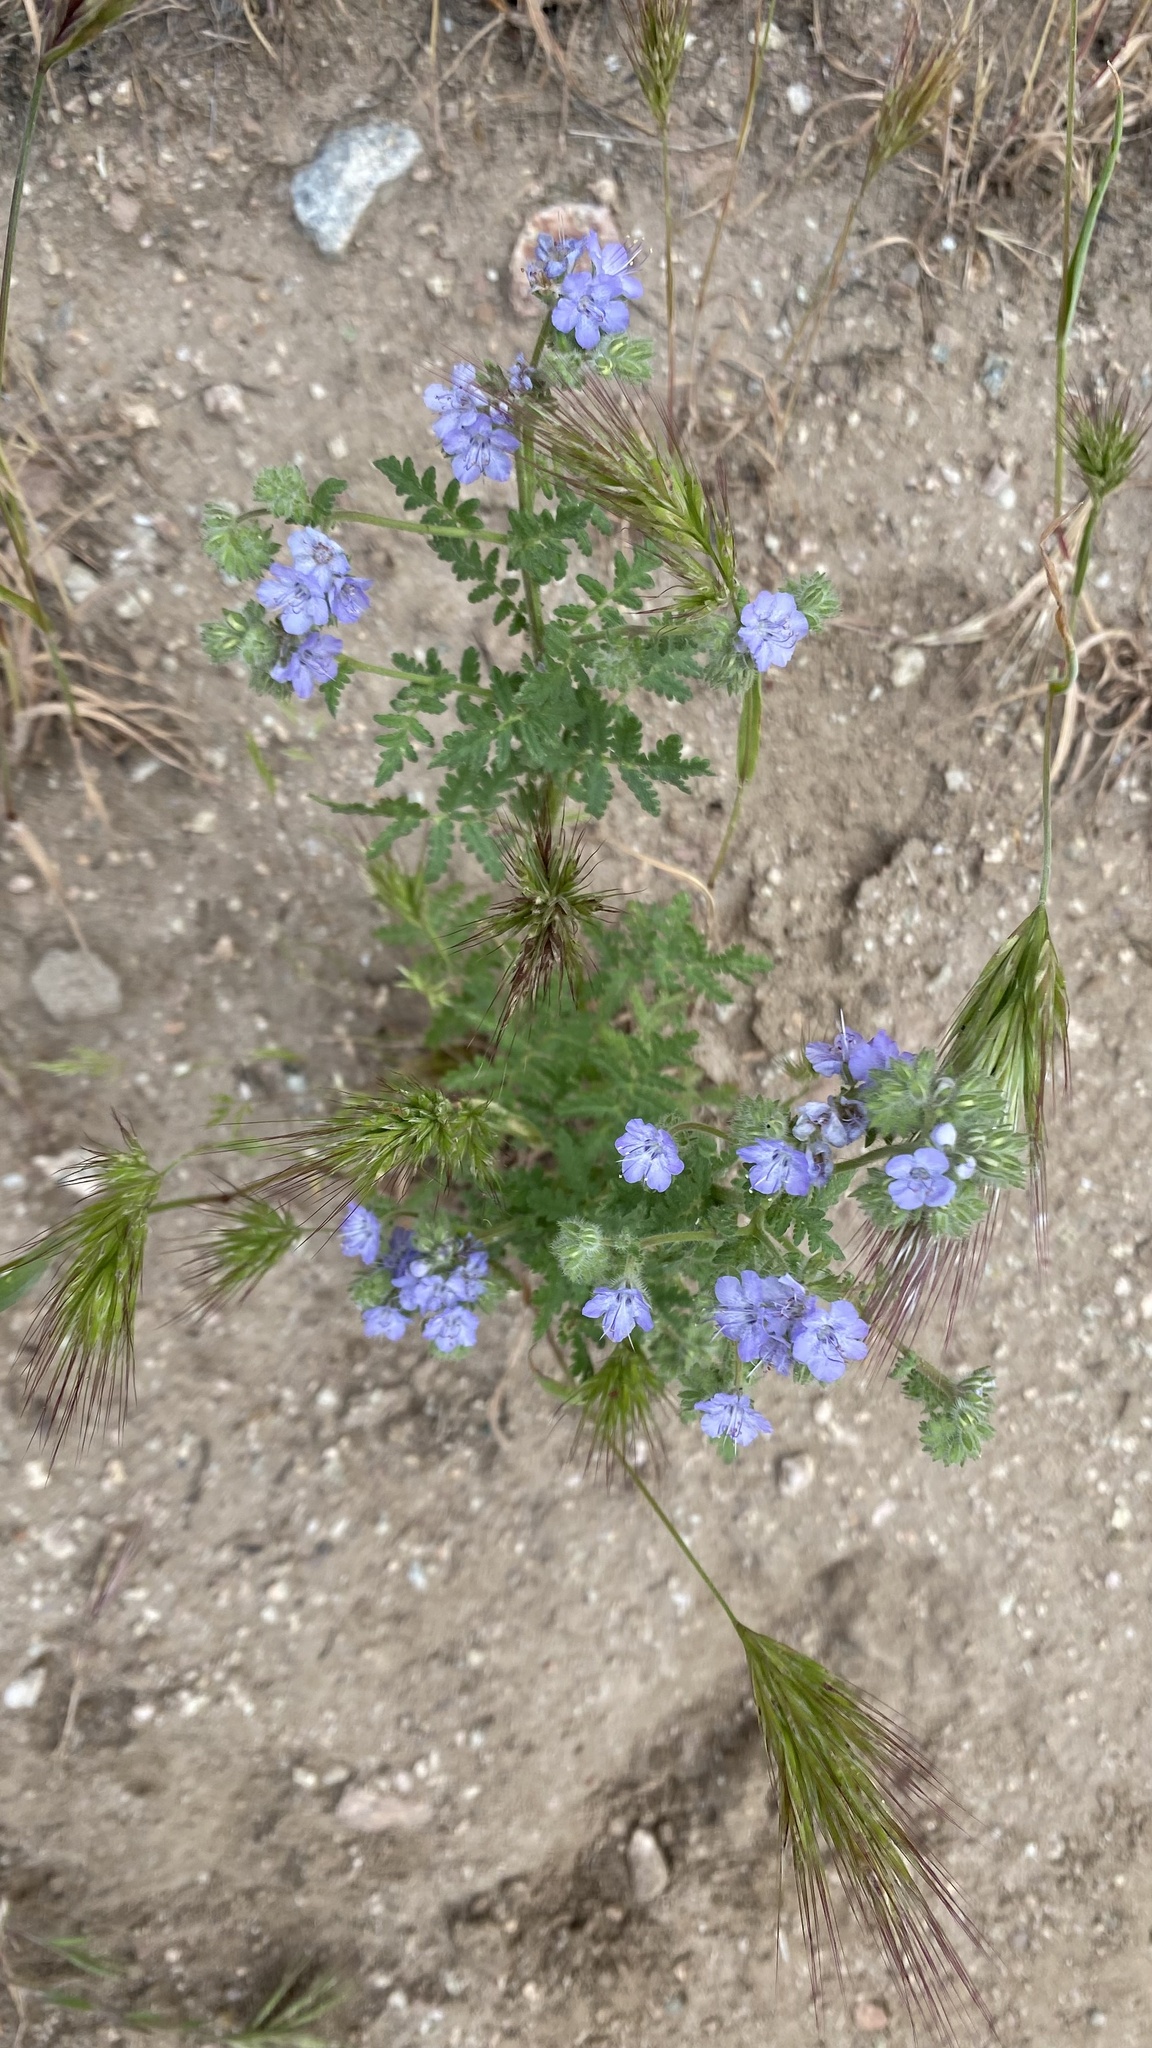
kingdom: Plantae
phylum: Tracheophyta
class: Magnoliopsida
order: Boraginales
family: Hydrophyllaceae
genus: Phacelia
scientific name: Phacelia distans
